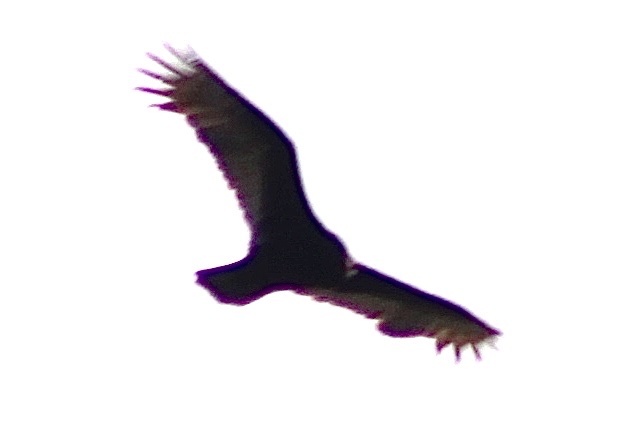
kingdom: Animalia
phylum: Chordata
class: Aves
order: Accipitriformes
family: Cathartidae
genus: Cathartes
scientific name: Cathartes aura
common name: Turkey vulture
